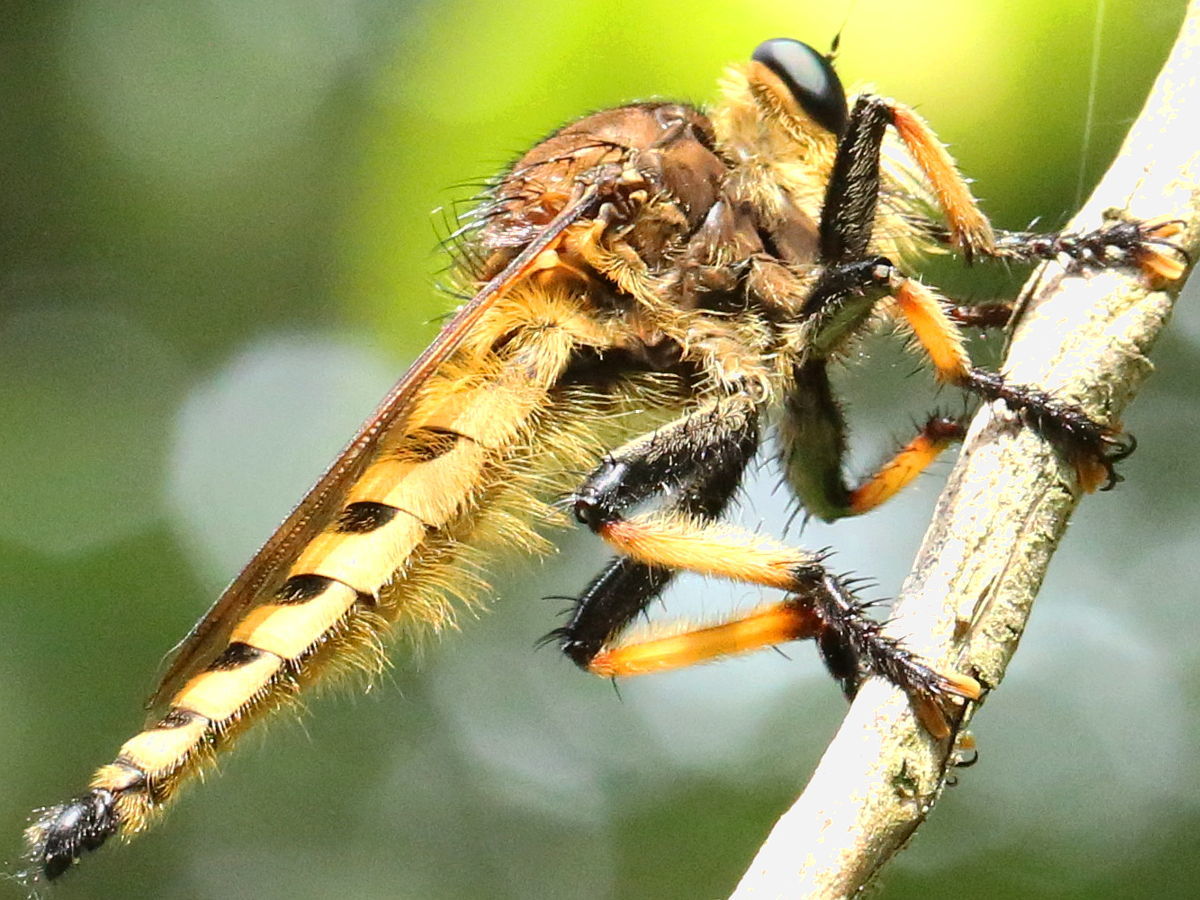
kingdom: Animalia
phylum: Arthropoda
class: Insecta
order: Diptera
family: Asilidae
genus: Promachus
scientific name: Promachus rufipes
